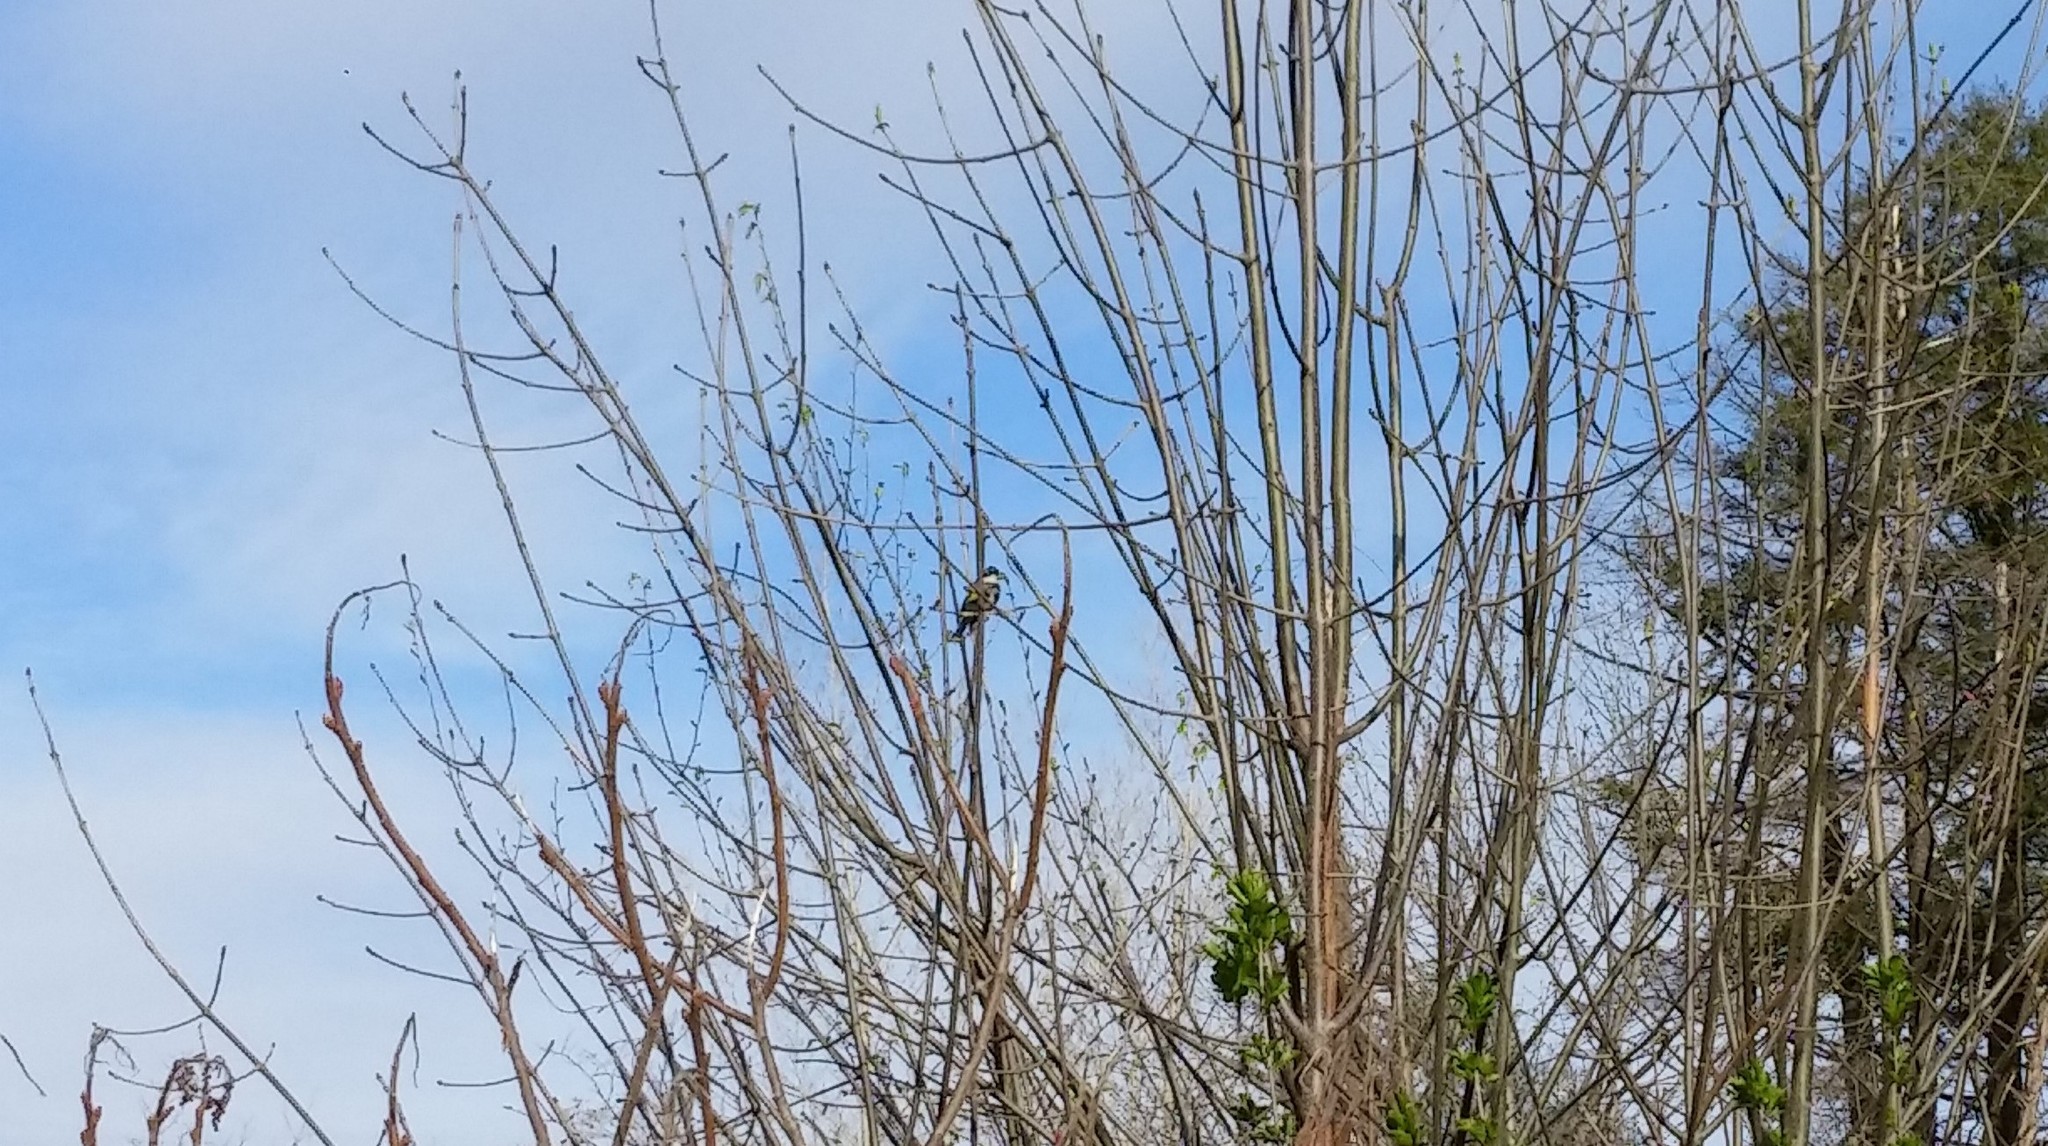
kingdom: Animalia
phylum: Chordata
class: Aves
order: Passeriformes
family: Parulidae
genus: Setophaga
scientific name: Setophaga coronata
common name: Myrtle warbler
